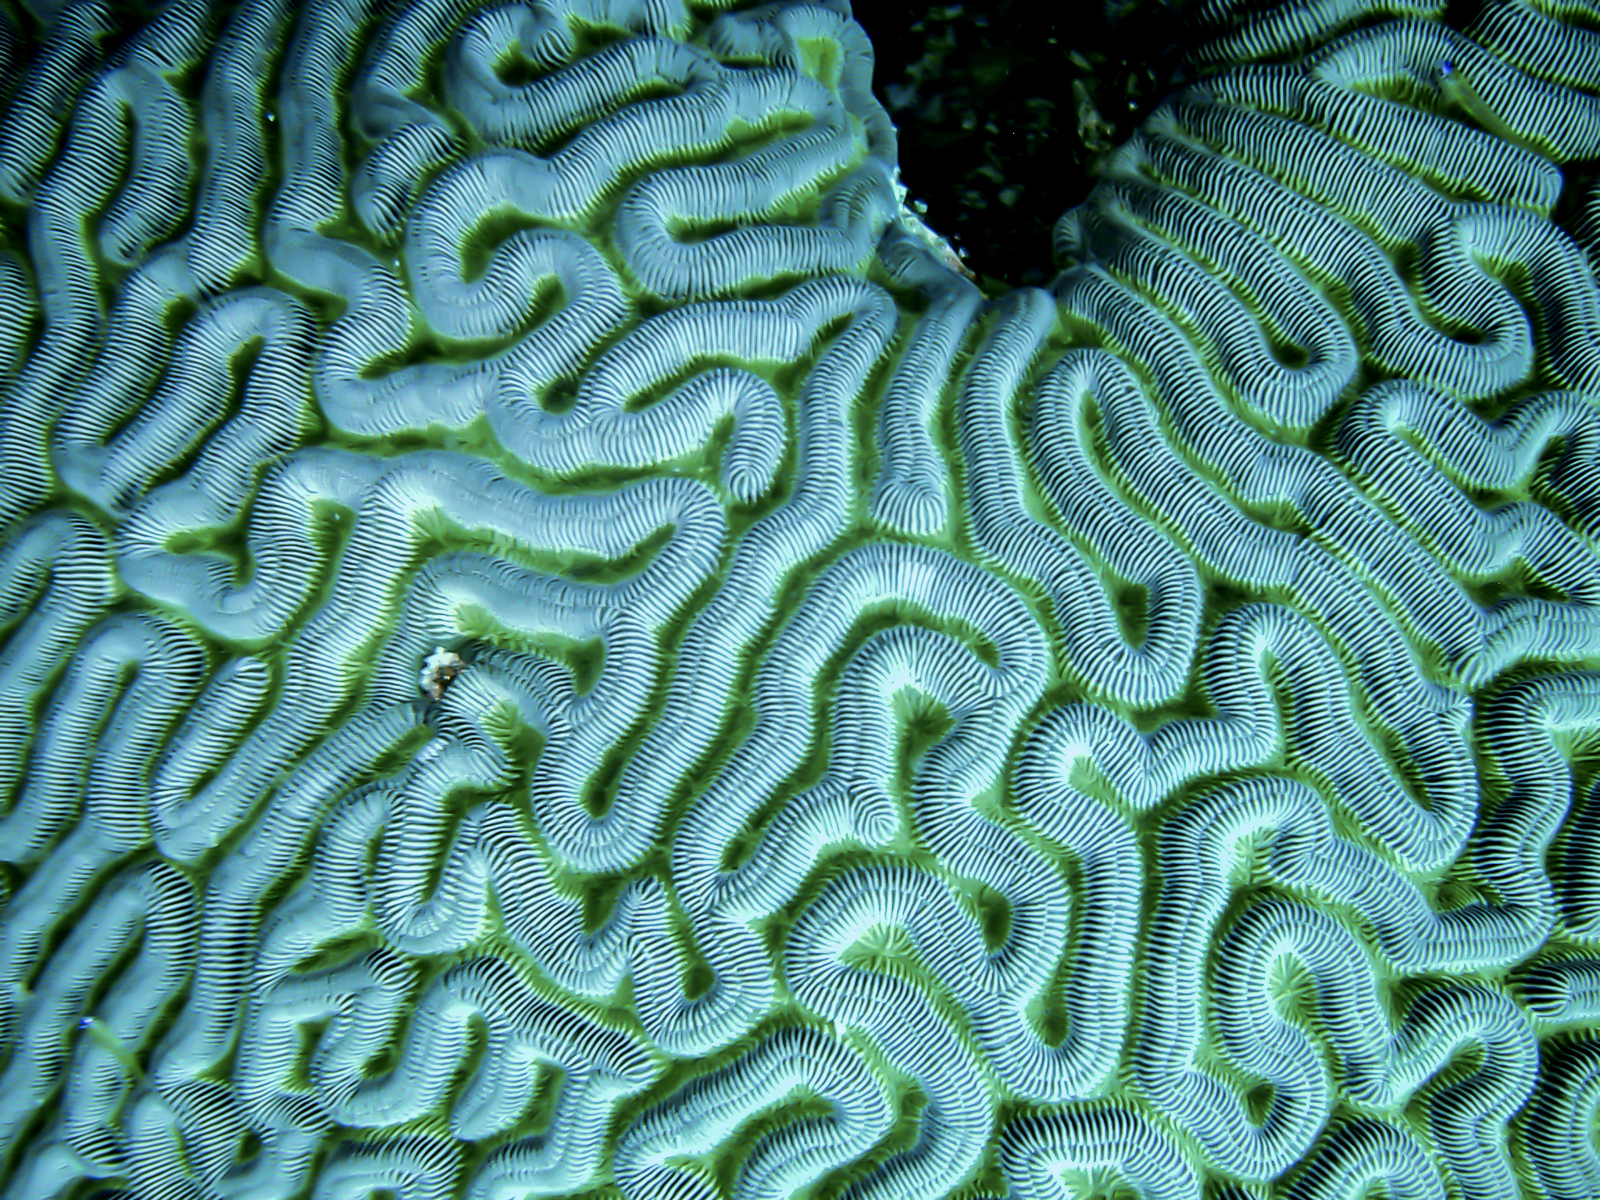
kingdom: Animalia
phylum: Cnidaria
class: Anthozoa
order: Scleractinia
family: Faviidae
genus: Colpophyllia
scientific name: Colpophyllia natans
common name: Boulder brain coral
